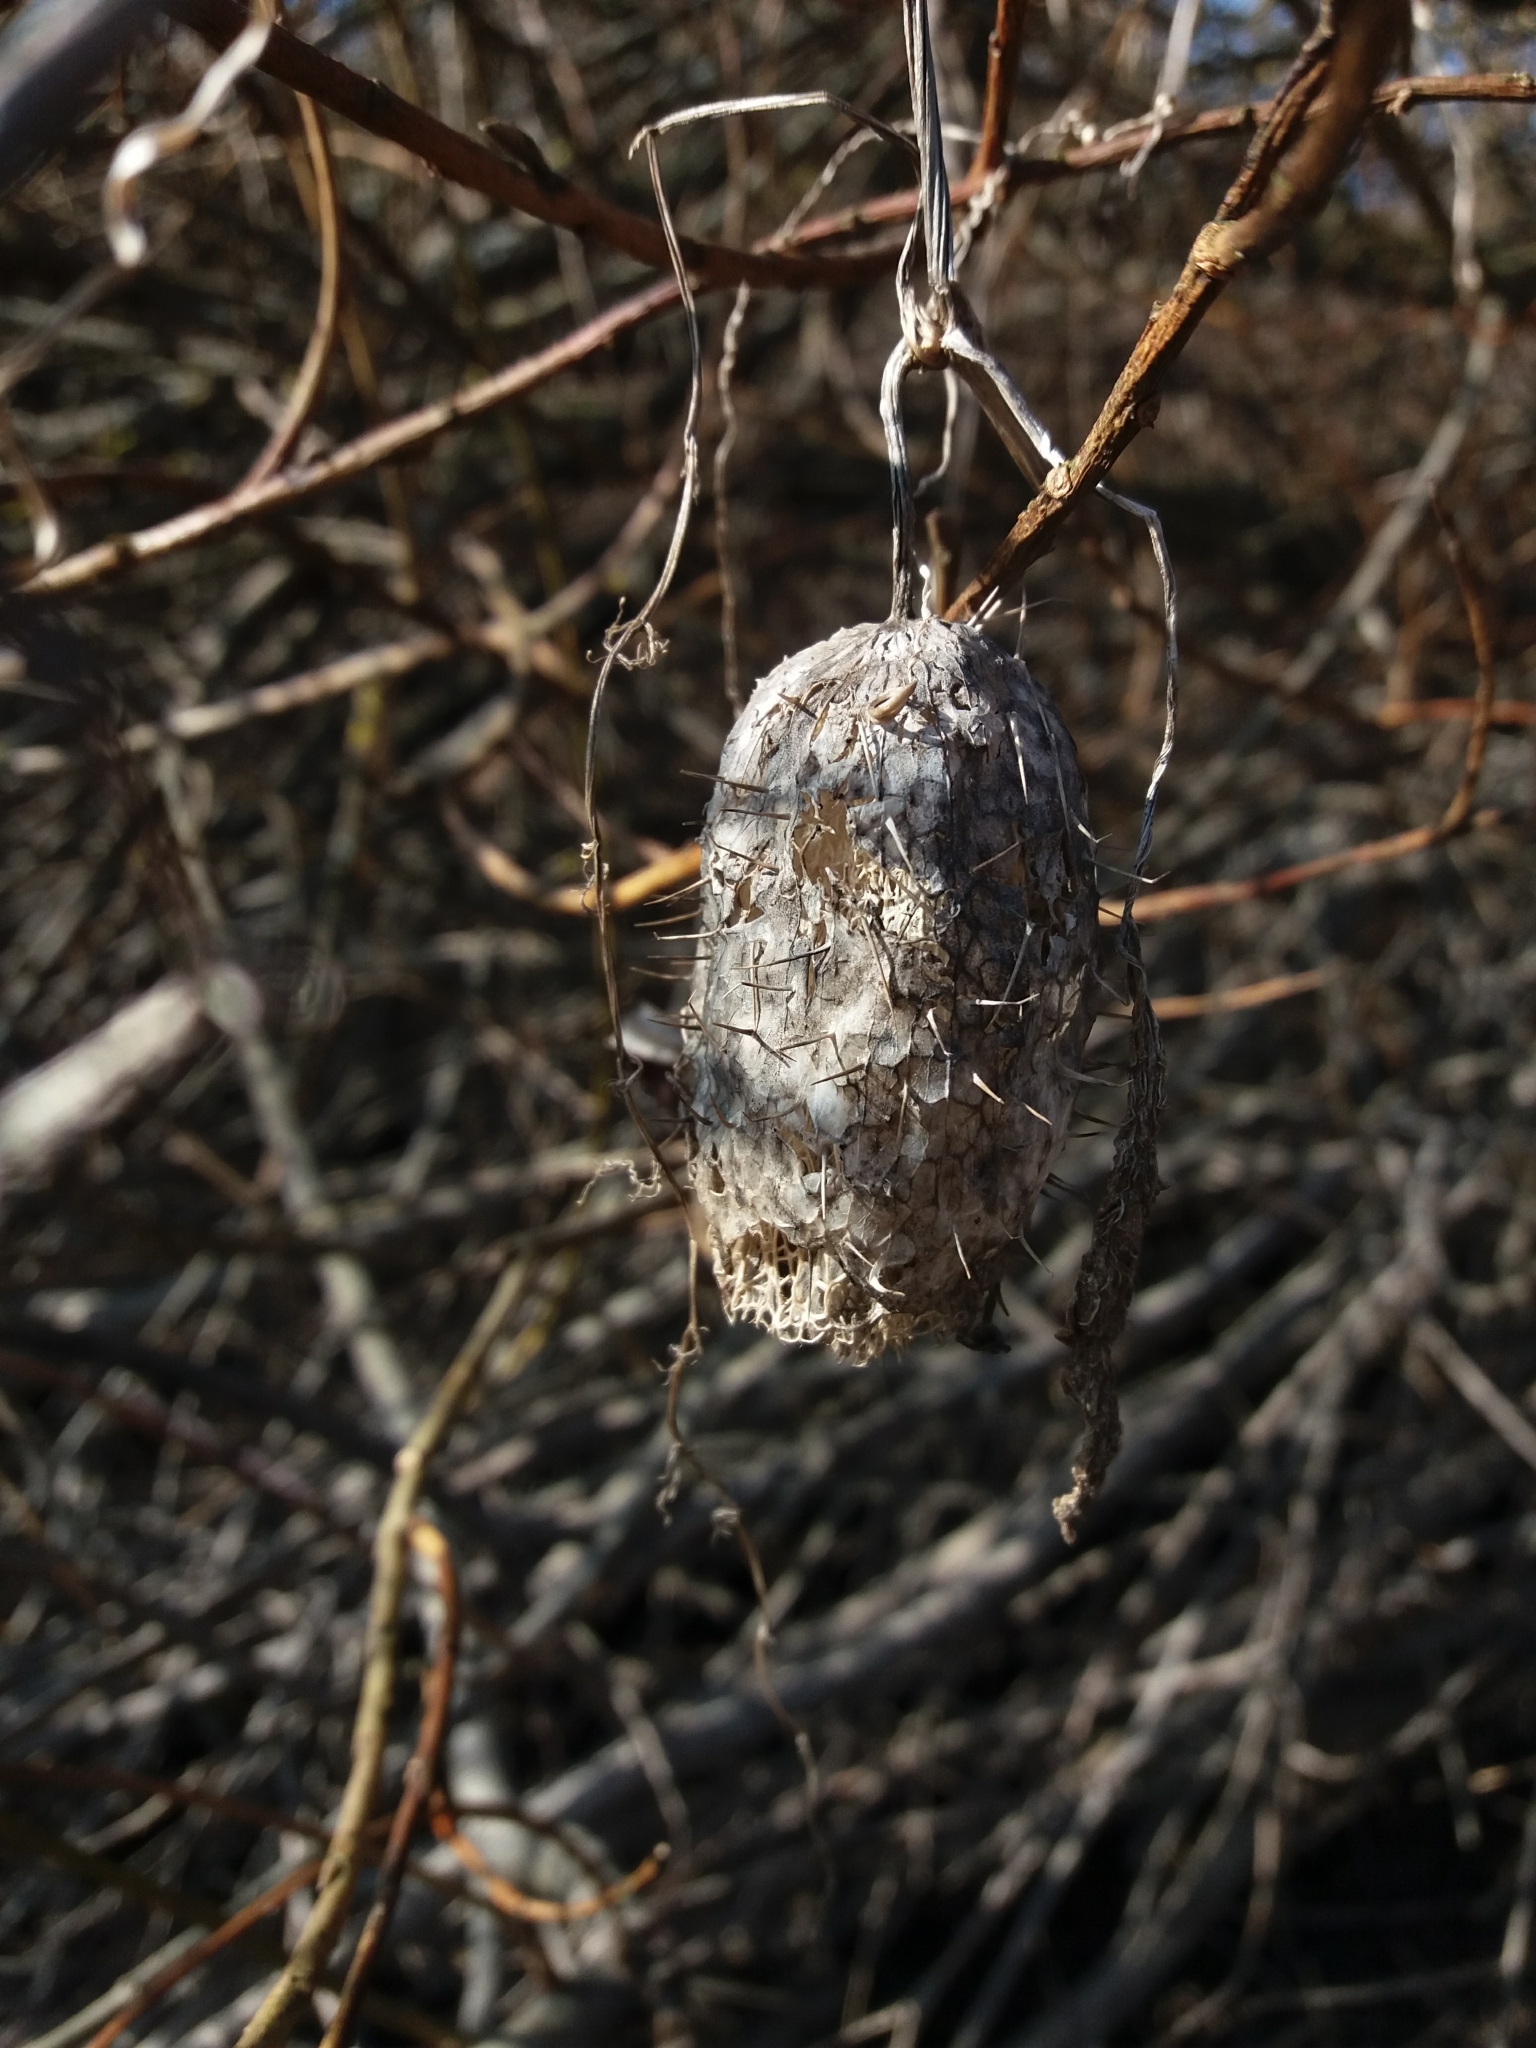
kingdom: Plantae
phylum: Tracheophyta
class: Magnoliopsida
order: Cucurbitales
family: Cucurbitaceae
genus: Echinocystis
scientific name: Echinocystis lobata
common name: Wild cucumber
